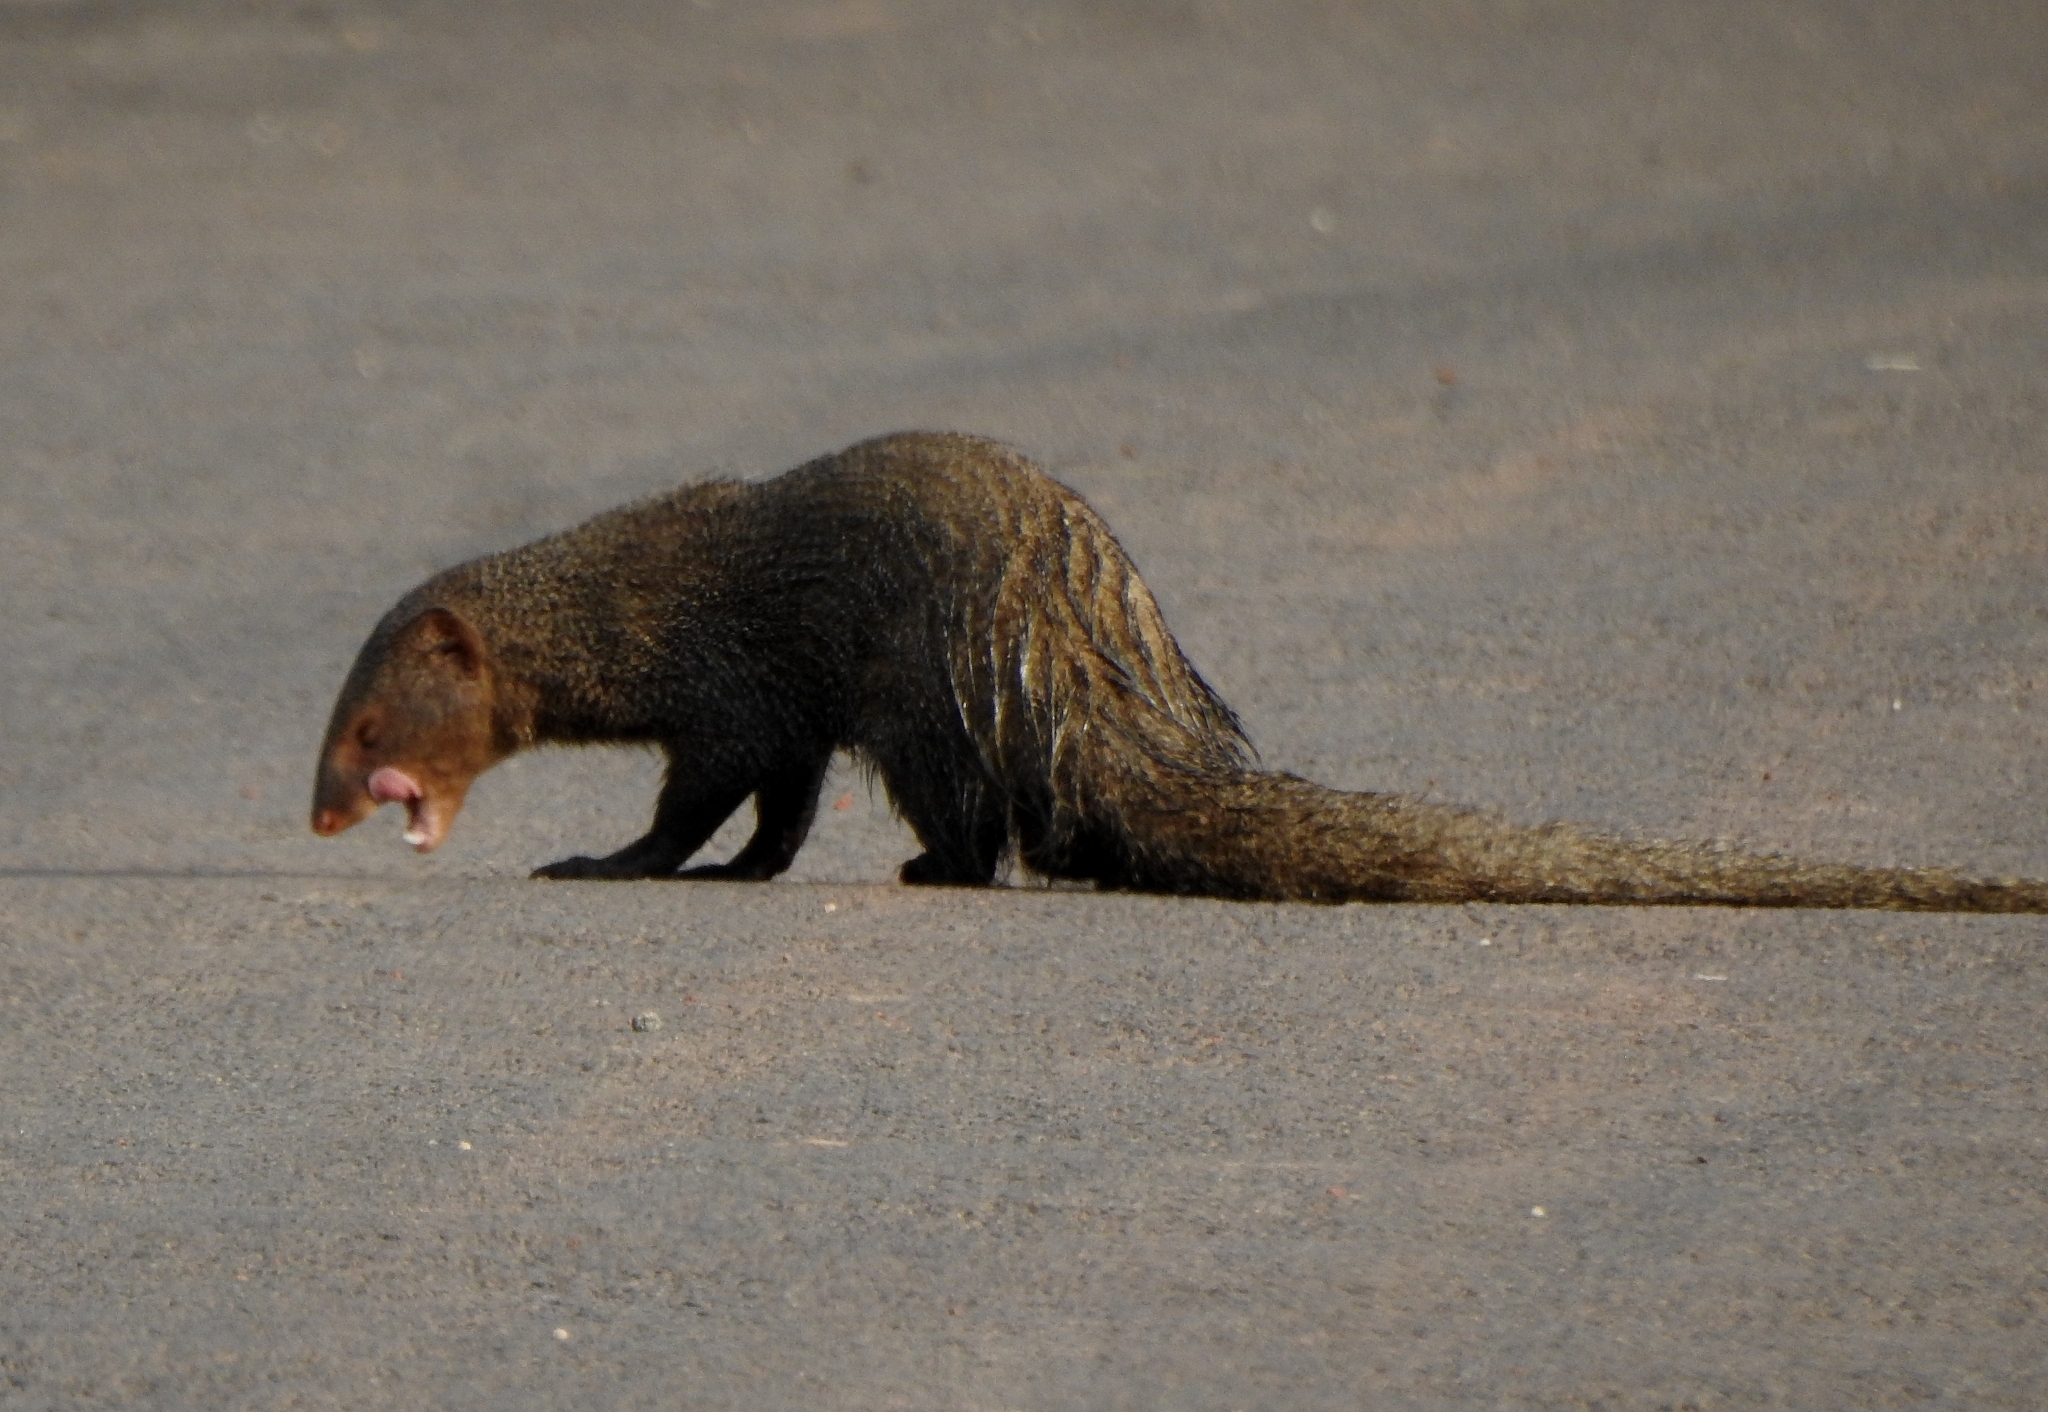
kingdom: Animalia
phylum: Chordata
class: Mammalia
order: Carnivora
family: Herpestidae
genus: Herpestes
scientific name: Herpestes edwardsi
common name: Indian gray mongoose
